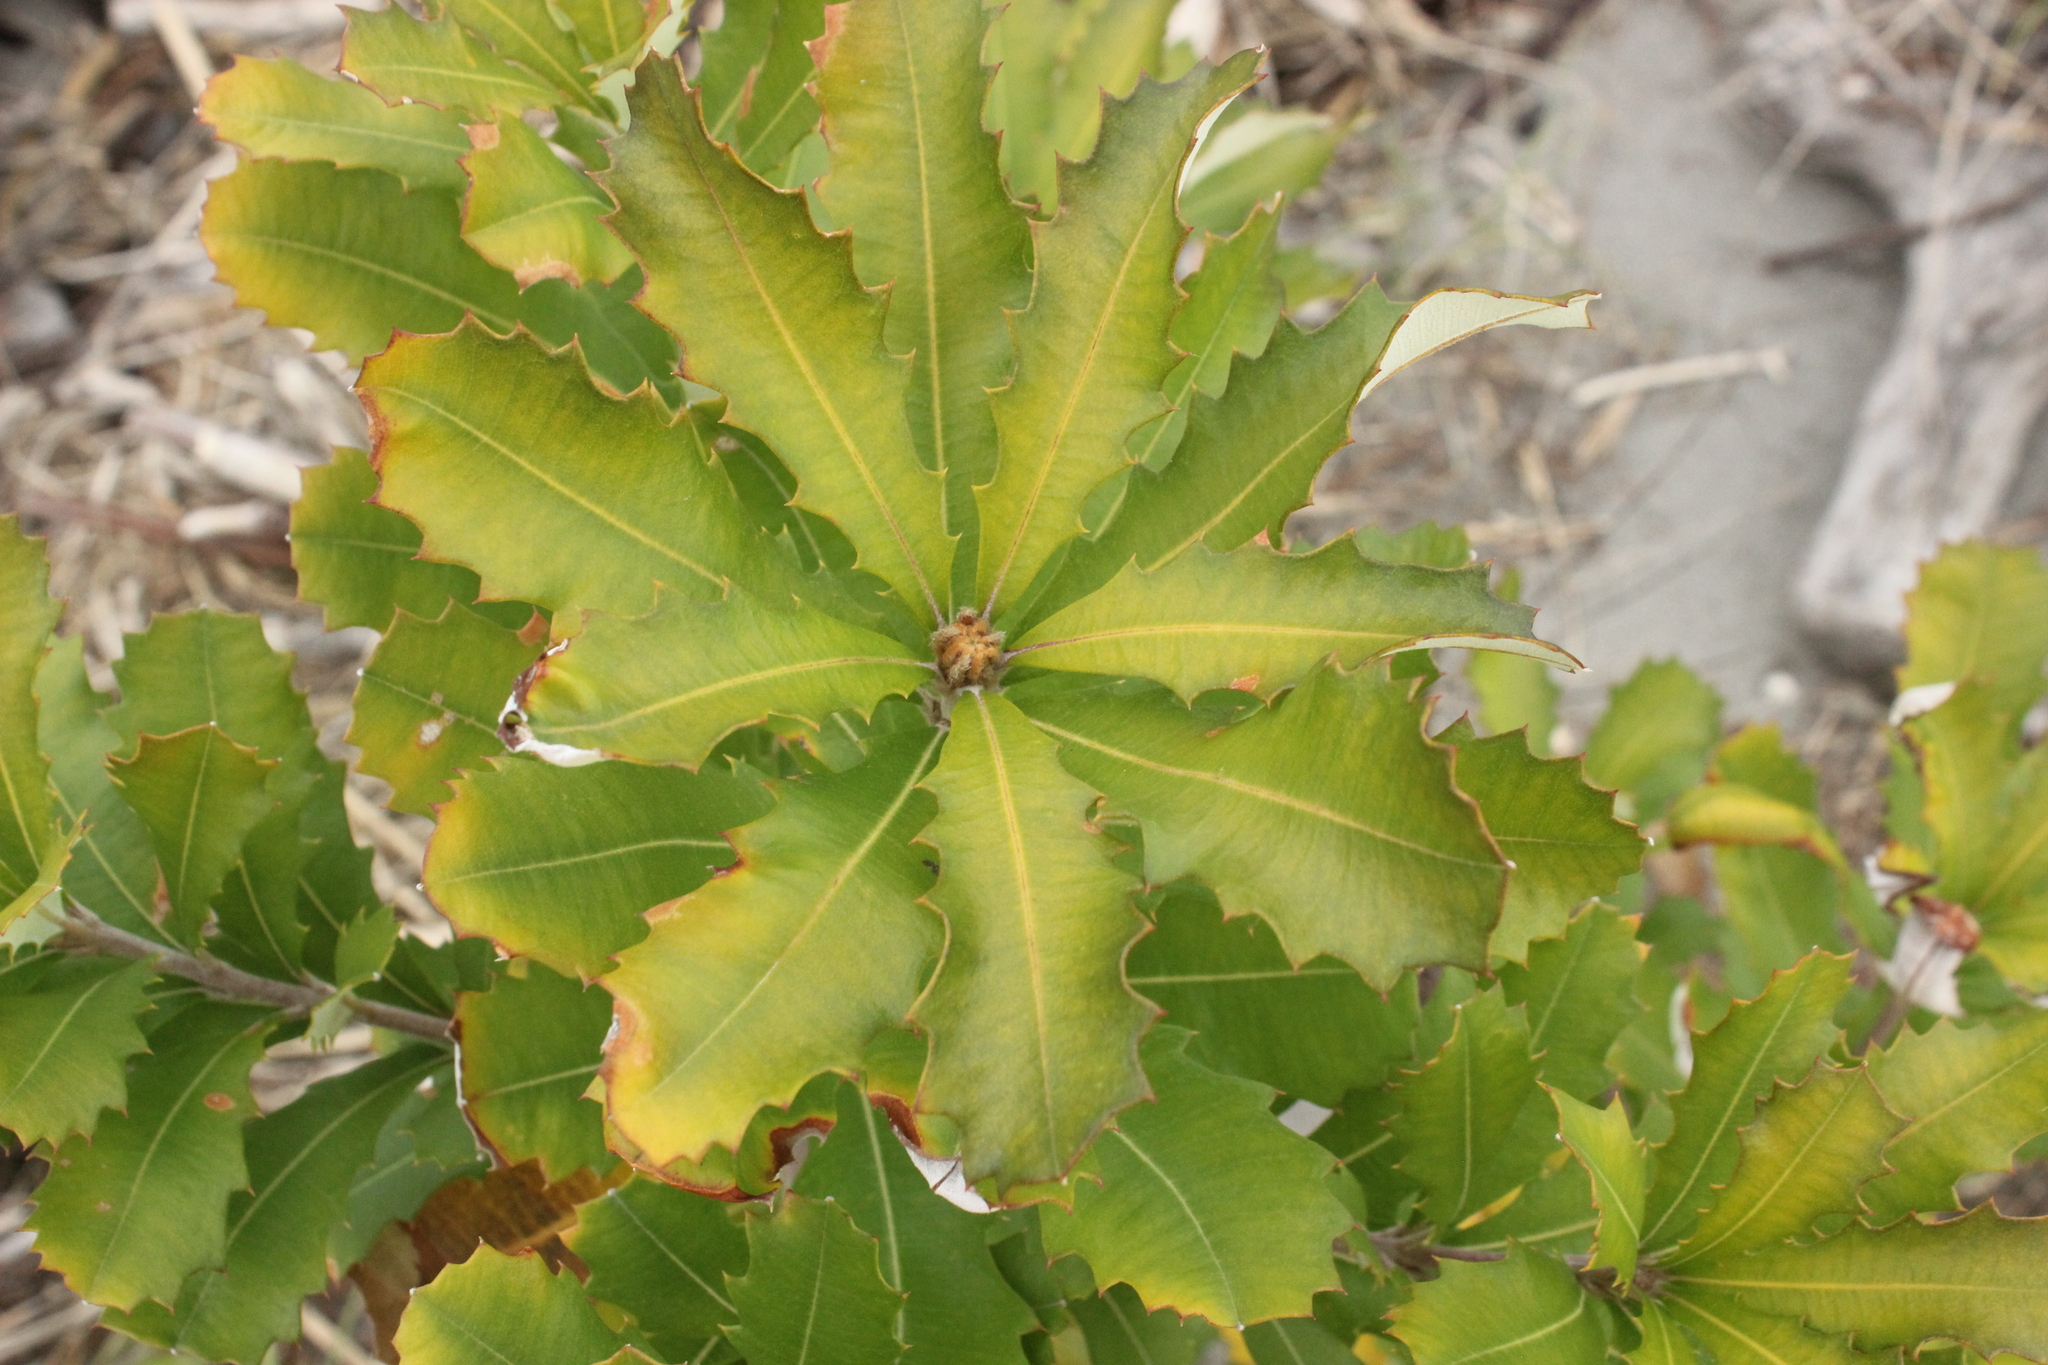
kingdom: Plantae
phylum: Tracheophyta
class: Magnoliopsida
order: Proteales
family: Proteaceae
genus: Banksia
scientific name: Banksia integrifolia
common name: White-honeysuckle
